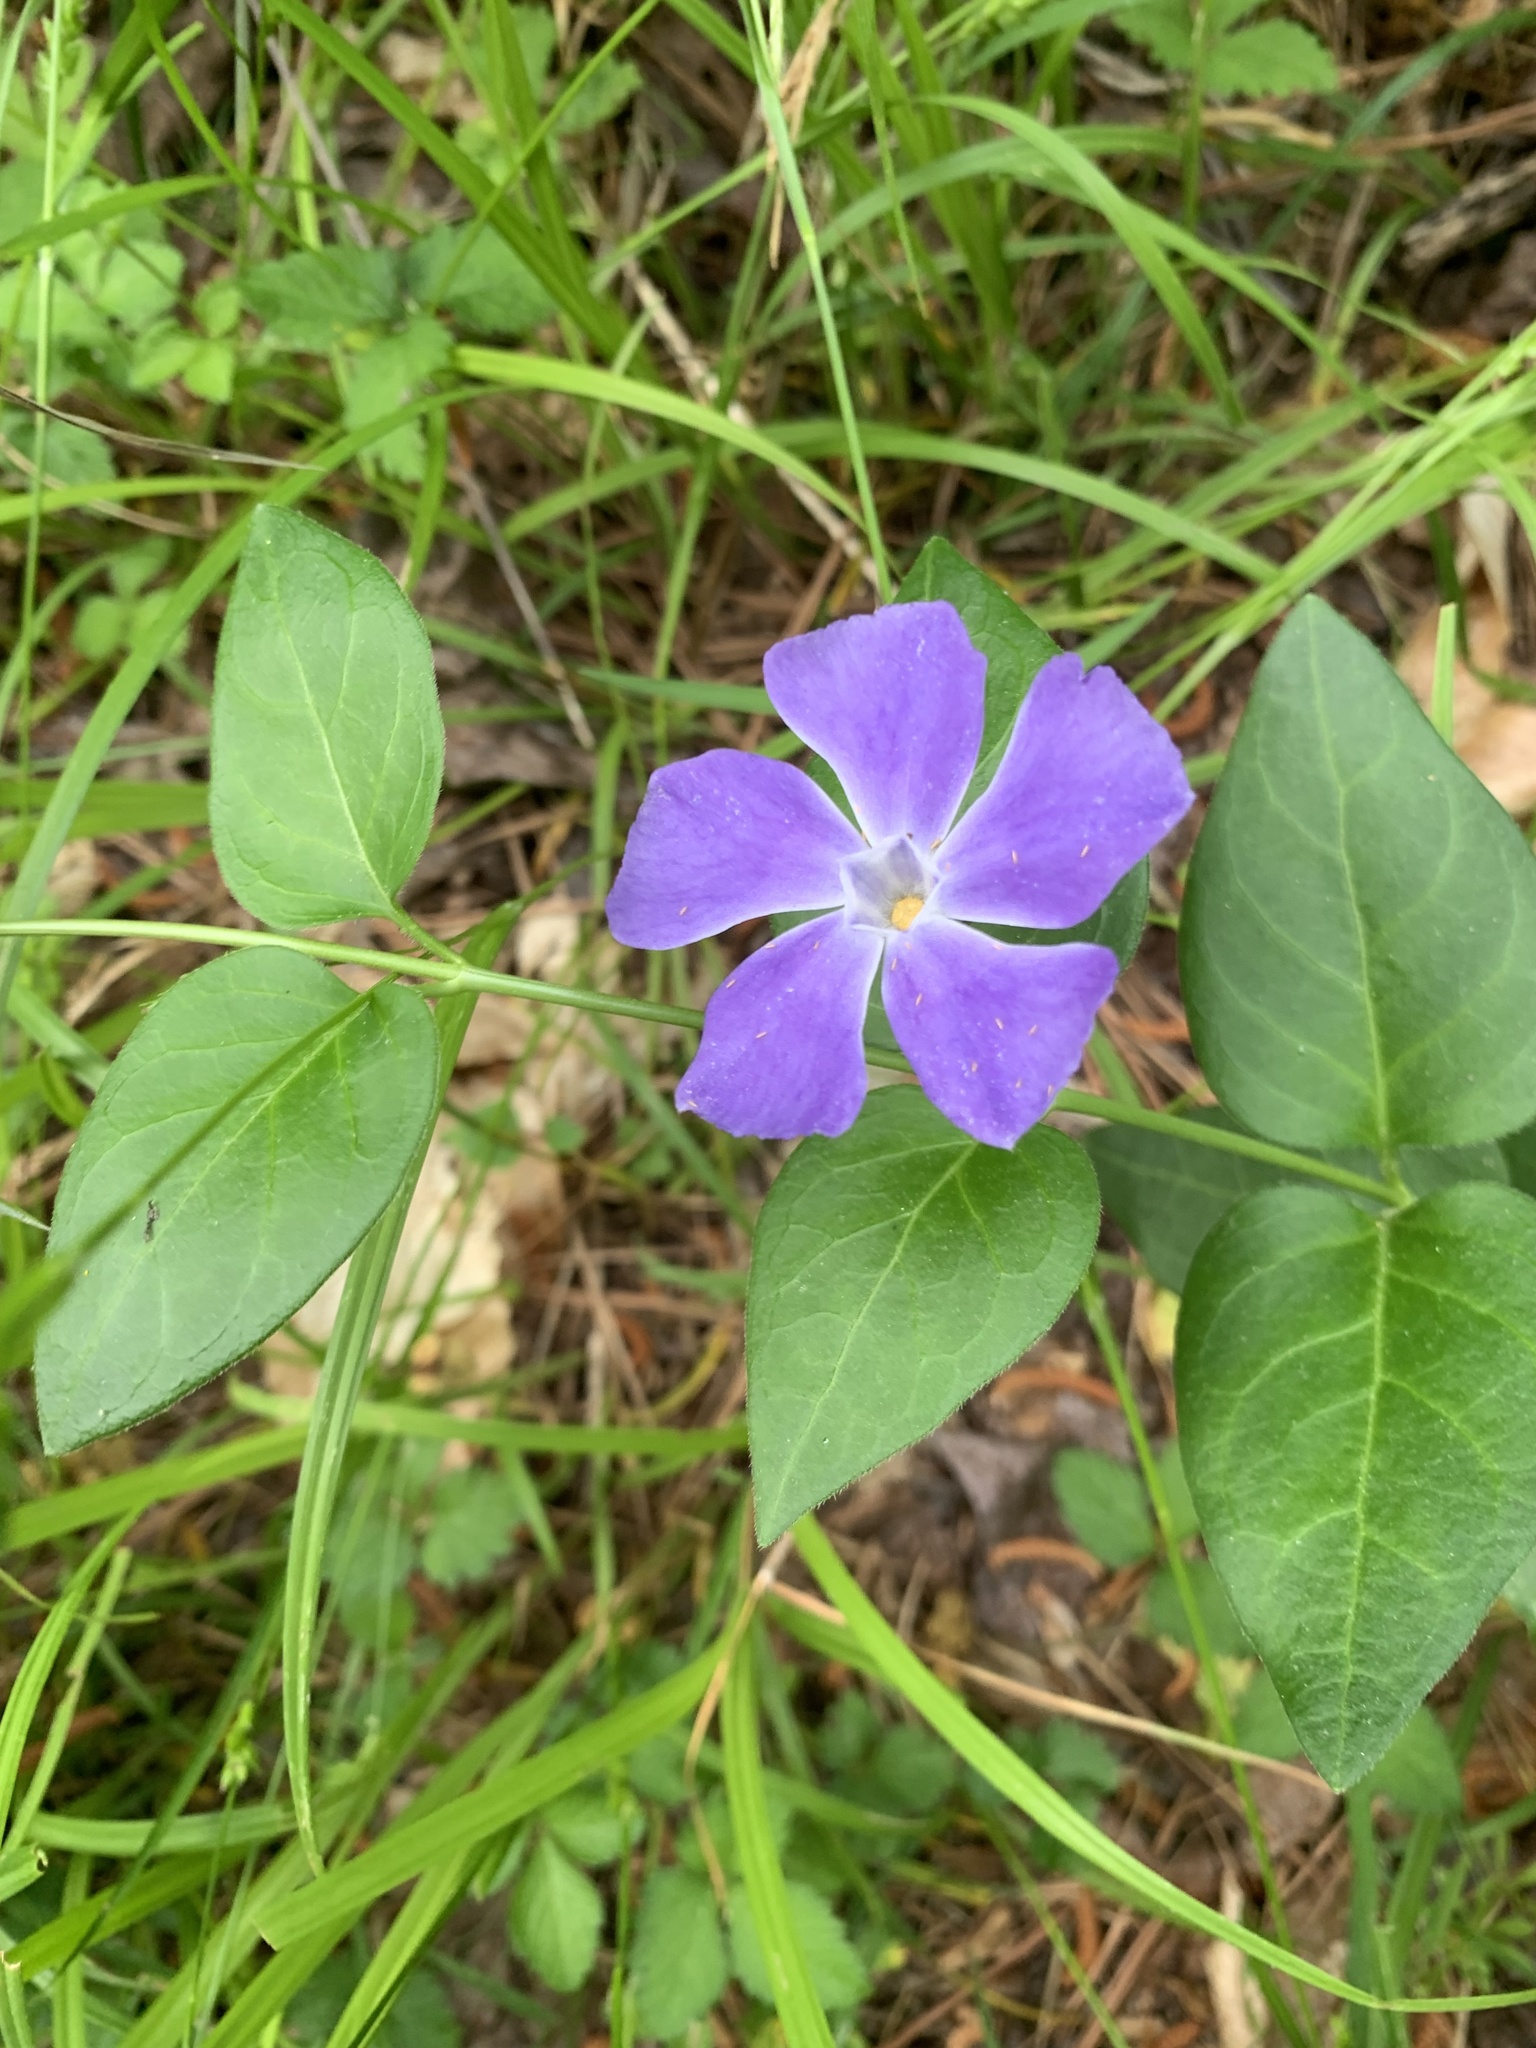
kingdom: Plantae
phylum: Tracheophyta
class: Magnoliopsida
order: Gentianales
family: Apocynaceae
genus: Vinca
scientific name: Vinca major
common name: Greater periwinkle
